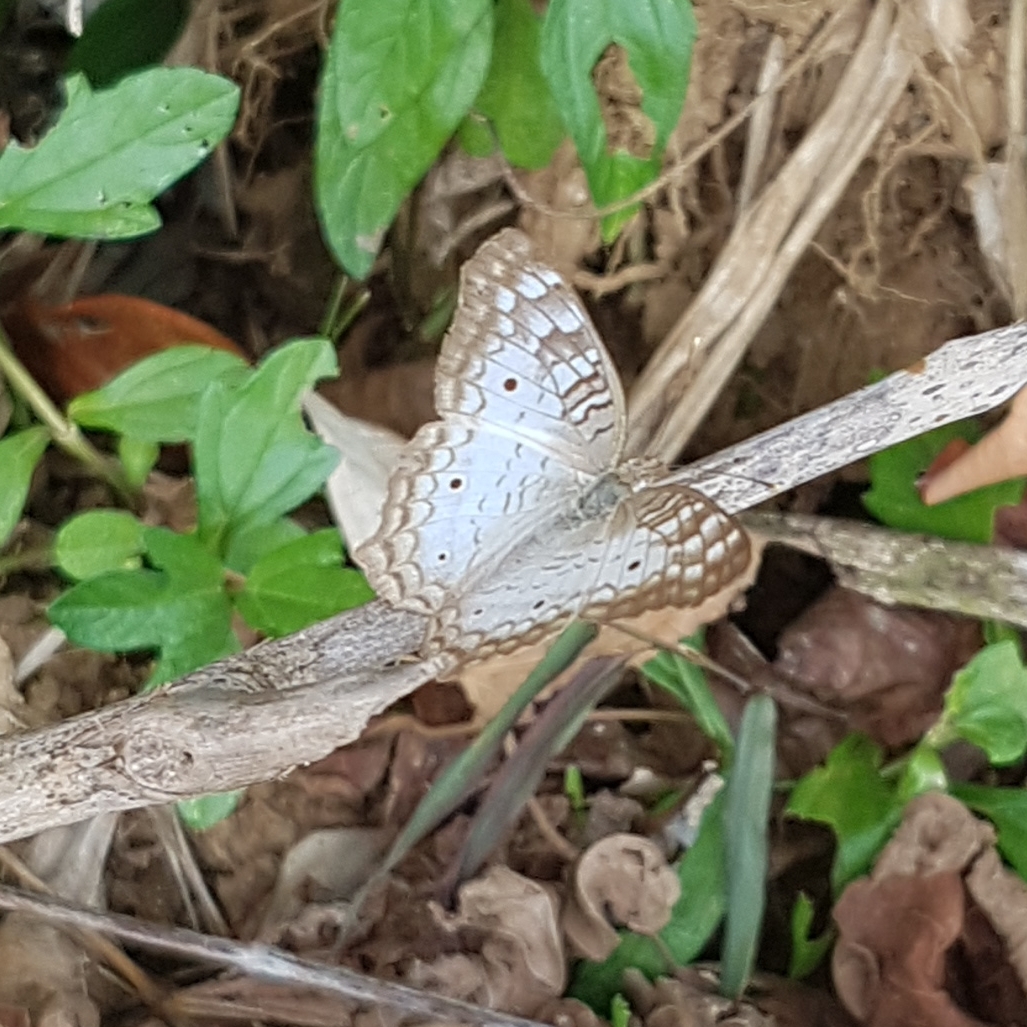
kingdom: Animalia
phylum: Arthropoda
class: Insecta
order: Lepidoptera
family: Nymphalidae
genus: Anartia
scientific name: Anartia jatrophae
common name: White peacock
